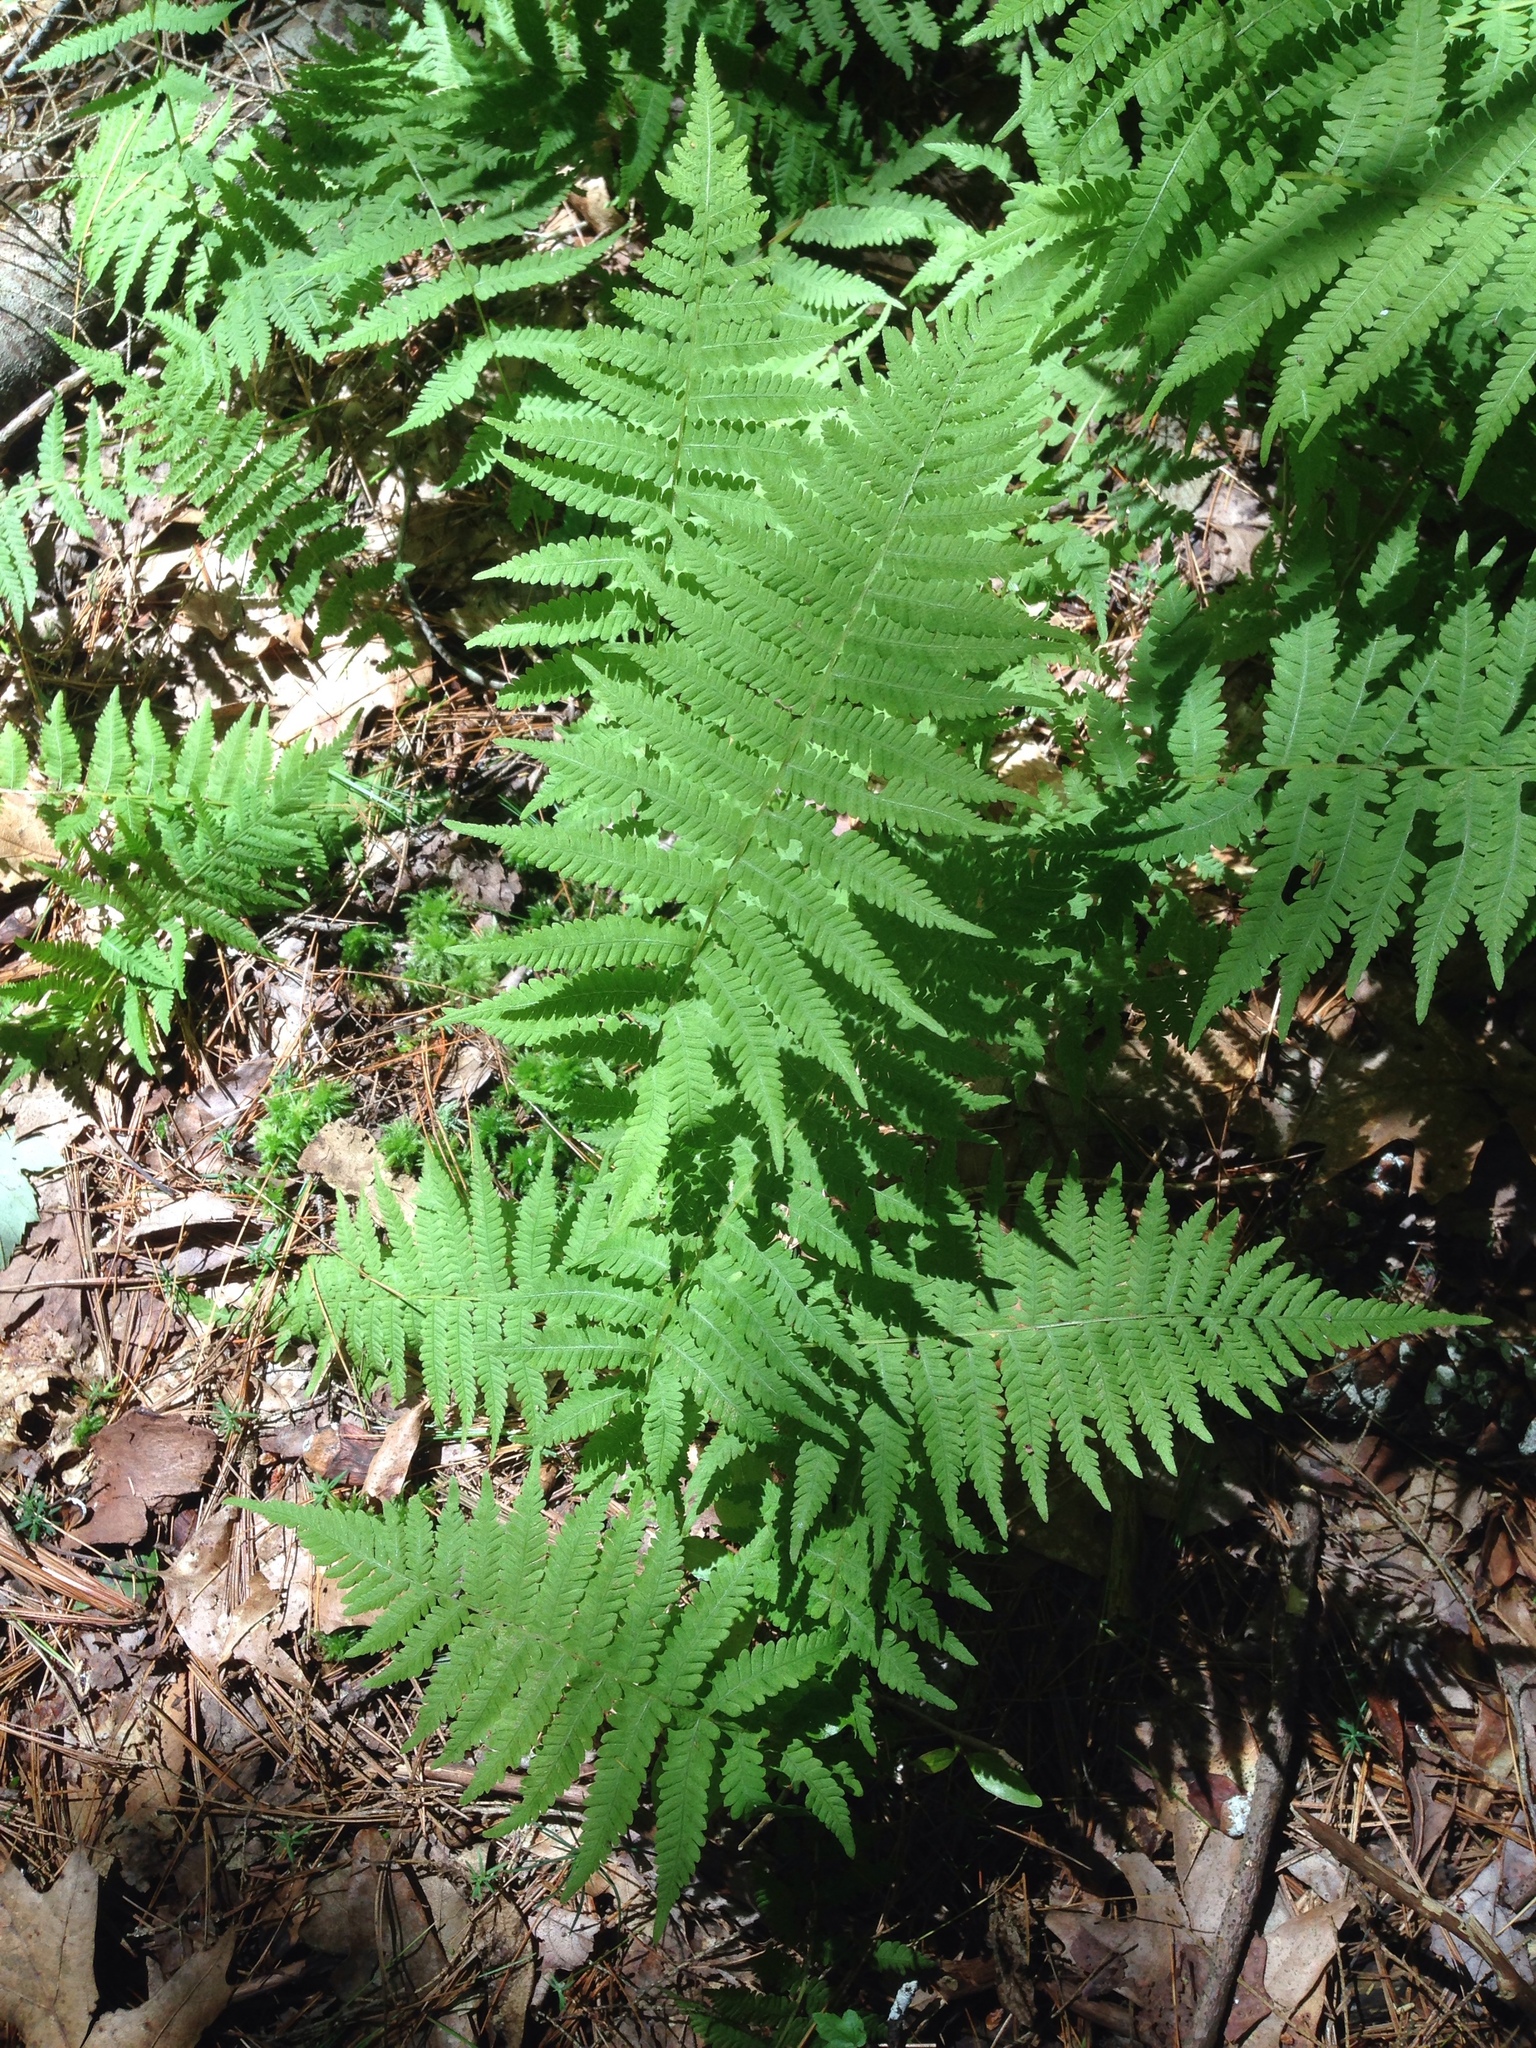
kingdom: Plantae
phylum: Tracheophyta
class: Polypodiopsida
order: Polypodiales
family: Thelypteridaceae
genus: Amauropelta
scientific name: Amauropelta noveboracensis
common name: New york fern
